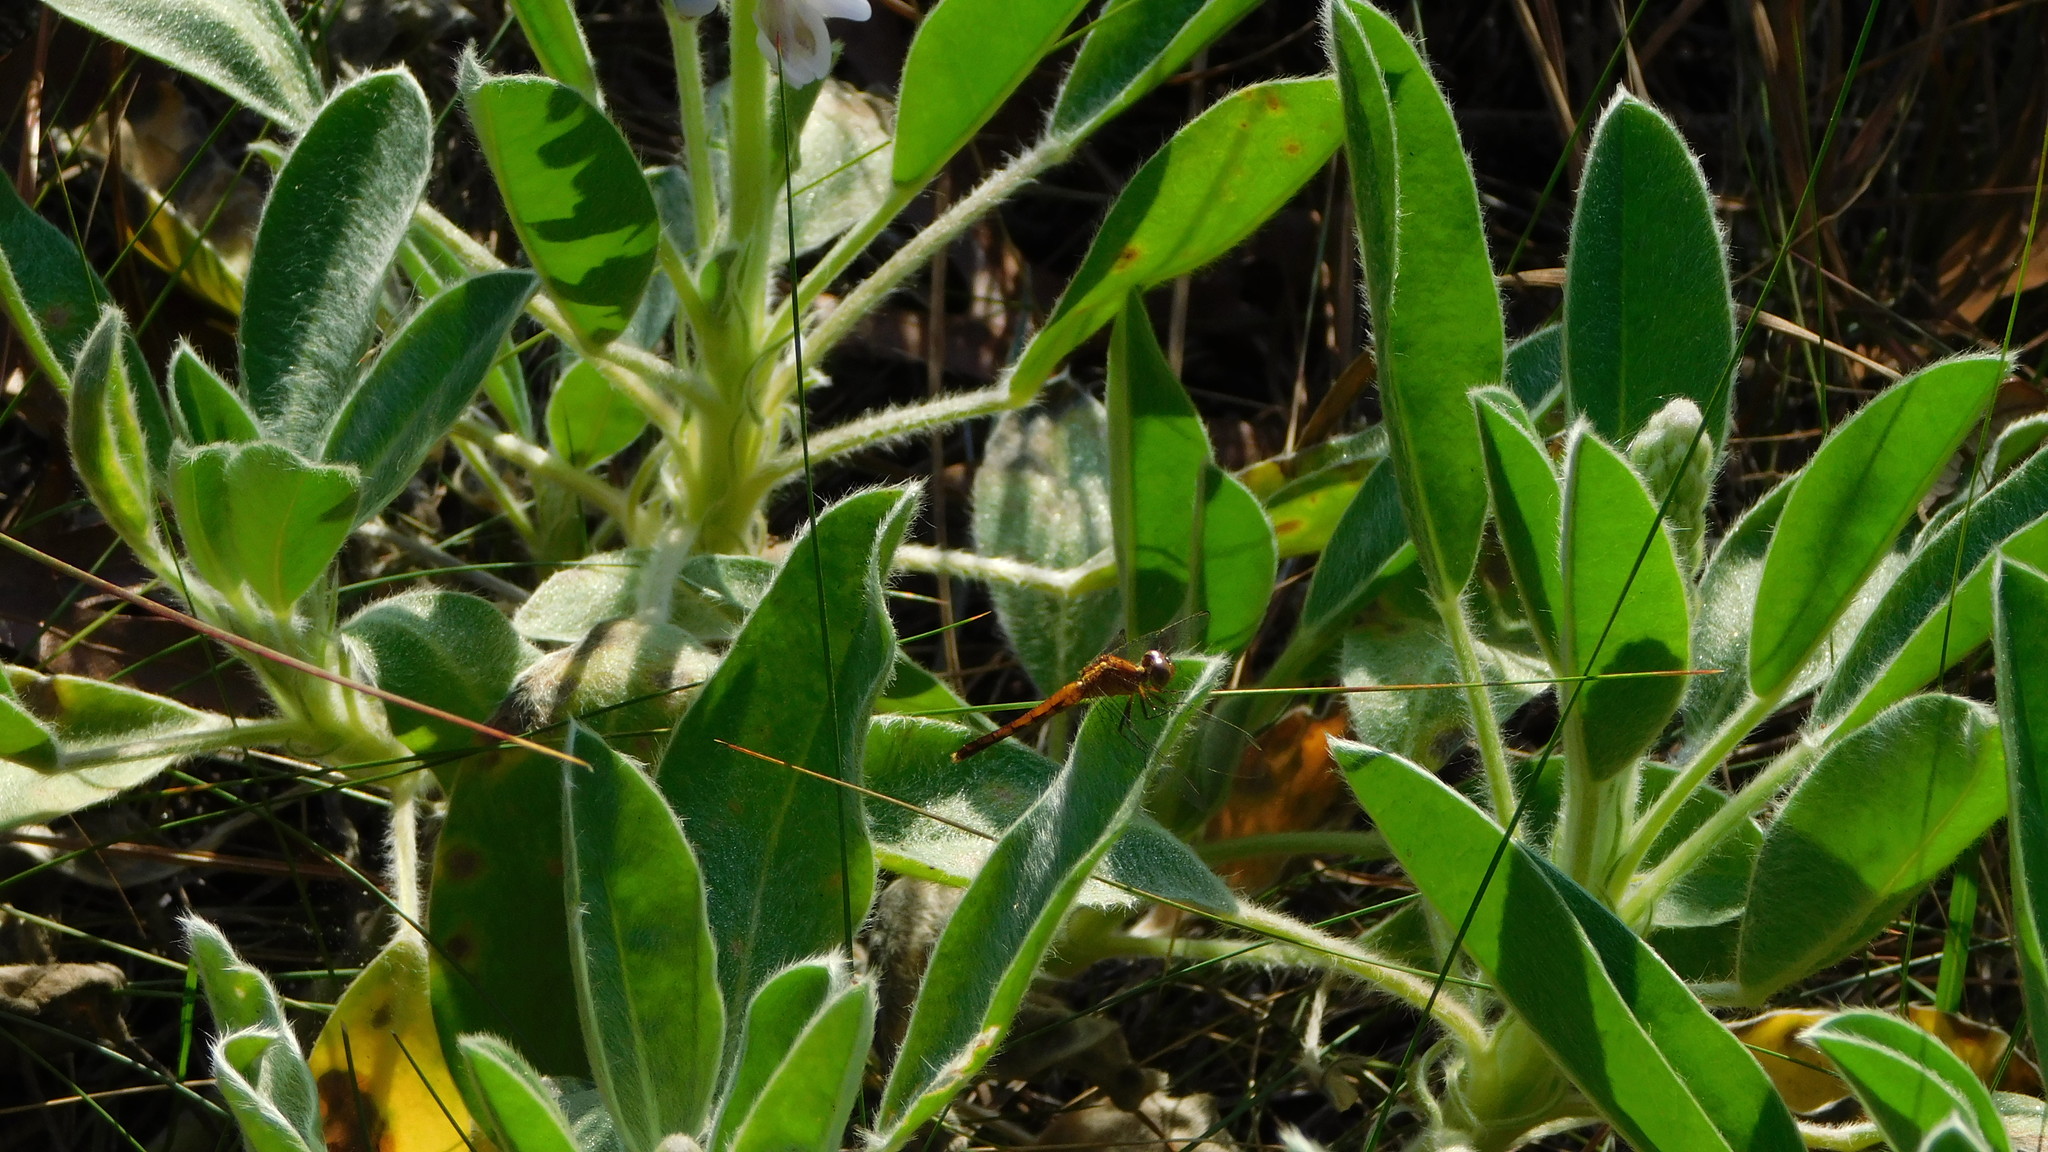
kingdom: Animalia
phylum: Arthropoda
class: Insecta
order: Odonata
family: Libellulidae
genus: Erythrodiplax
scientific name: Erythrodiplax minuscula
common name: Little blue dragonlet
